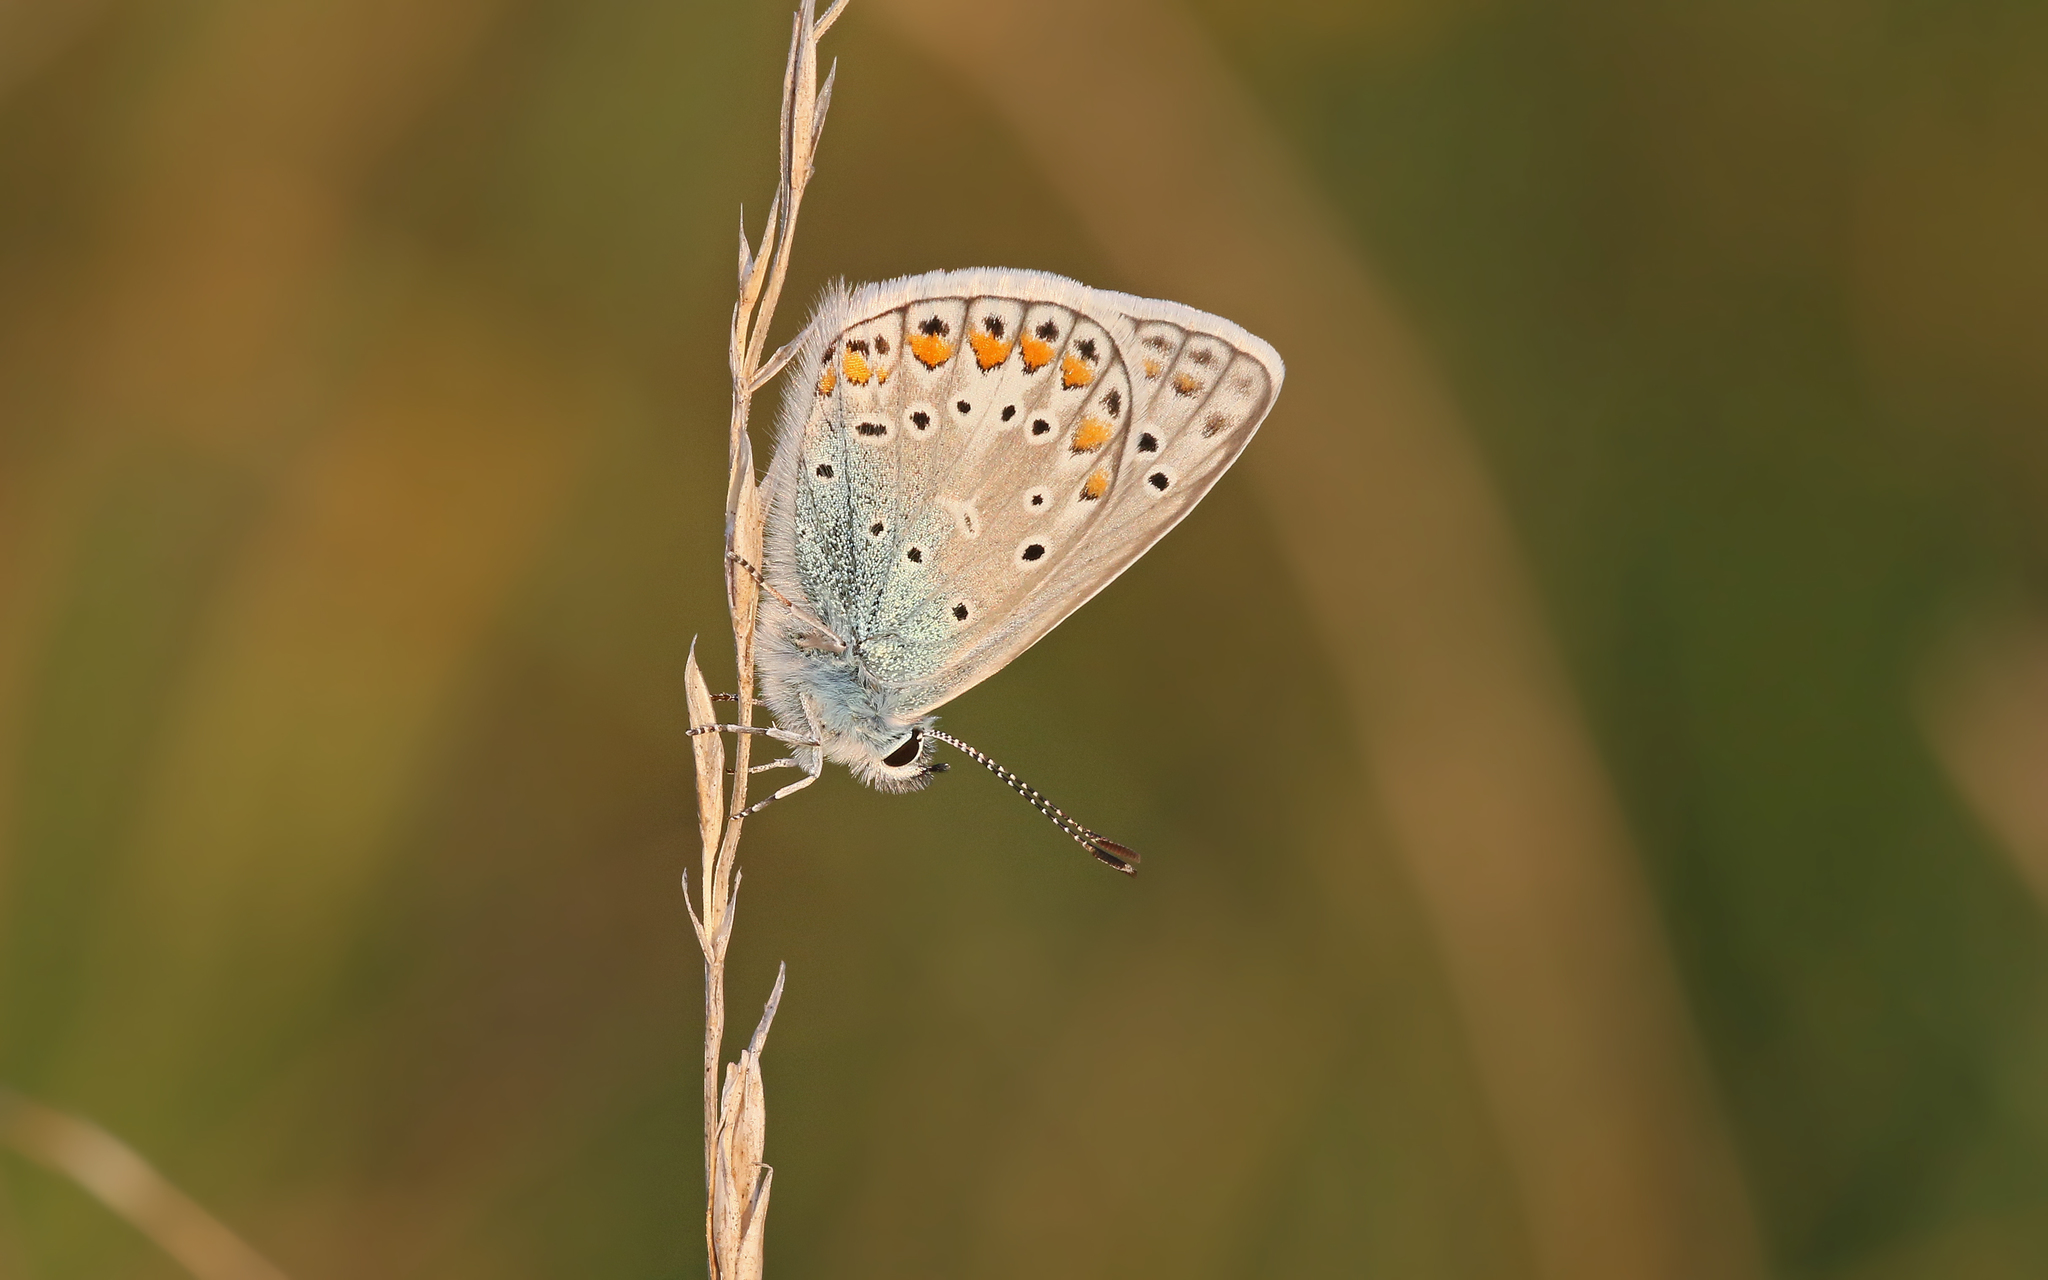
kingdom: Animalia
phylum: Arthropoda
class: Insecta
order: Lepidoptera
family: Lycaenidae
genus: Polyommatus
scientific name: Polyommatus icarus
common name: Common blue
